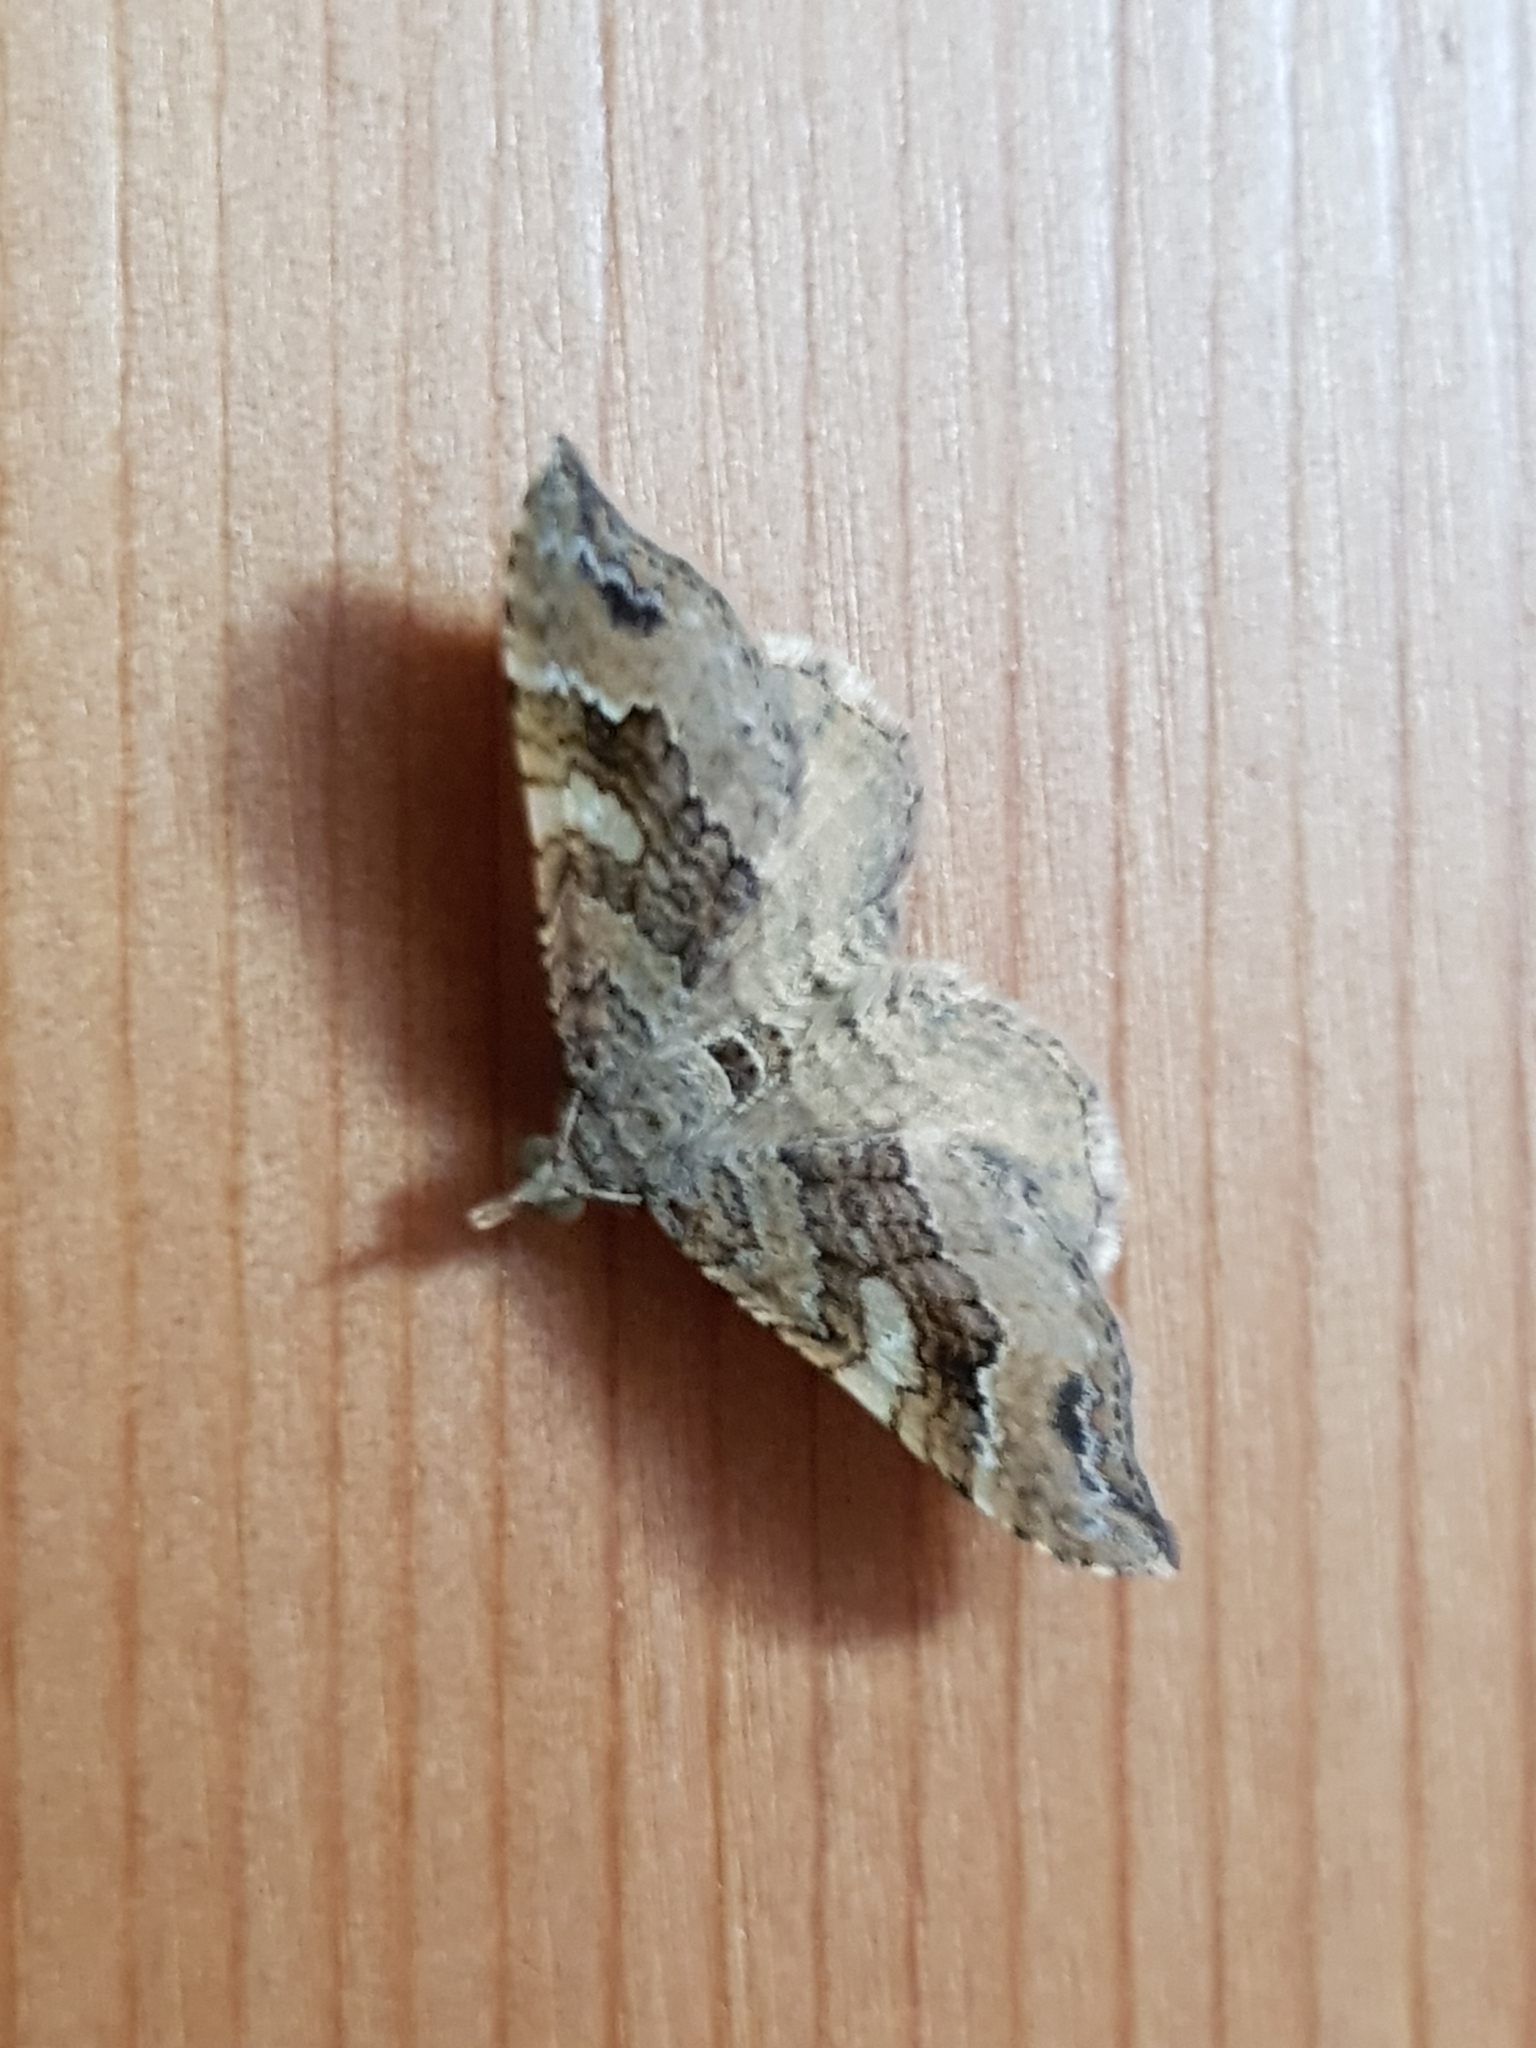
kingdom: Animalia
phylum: Arthropoda
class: Insecta
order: Lepidoptera
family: Geometridae
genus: Homodotis
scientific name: Homodotis megaspilata
